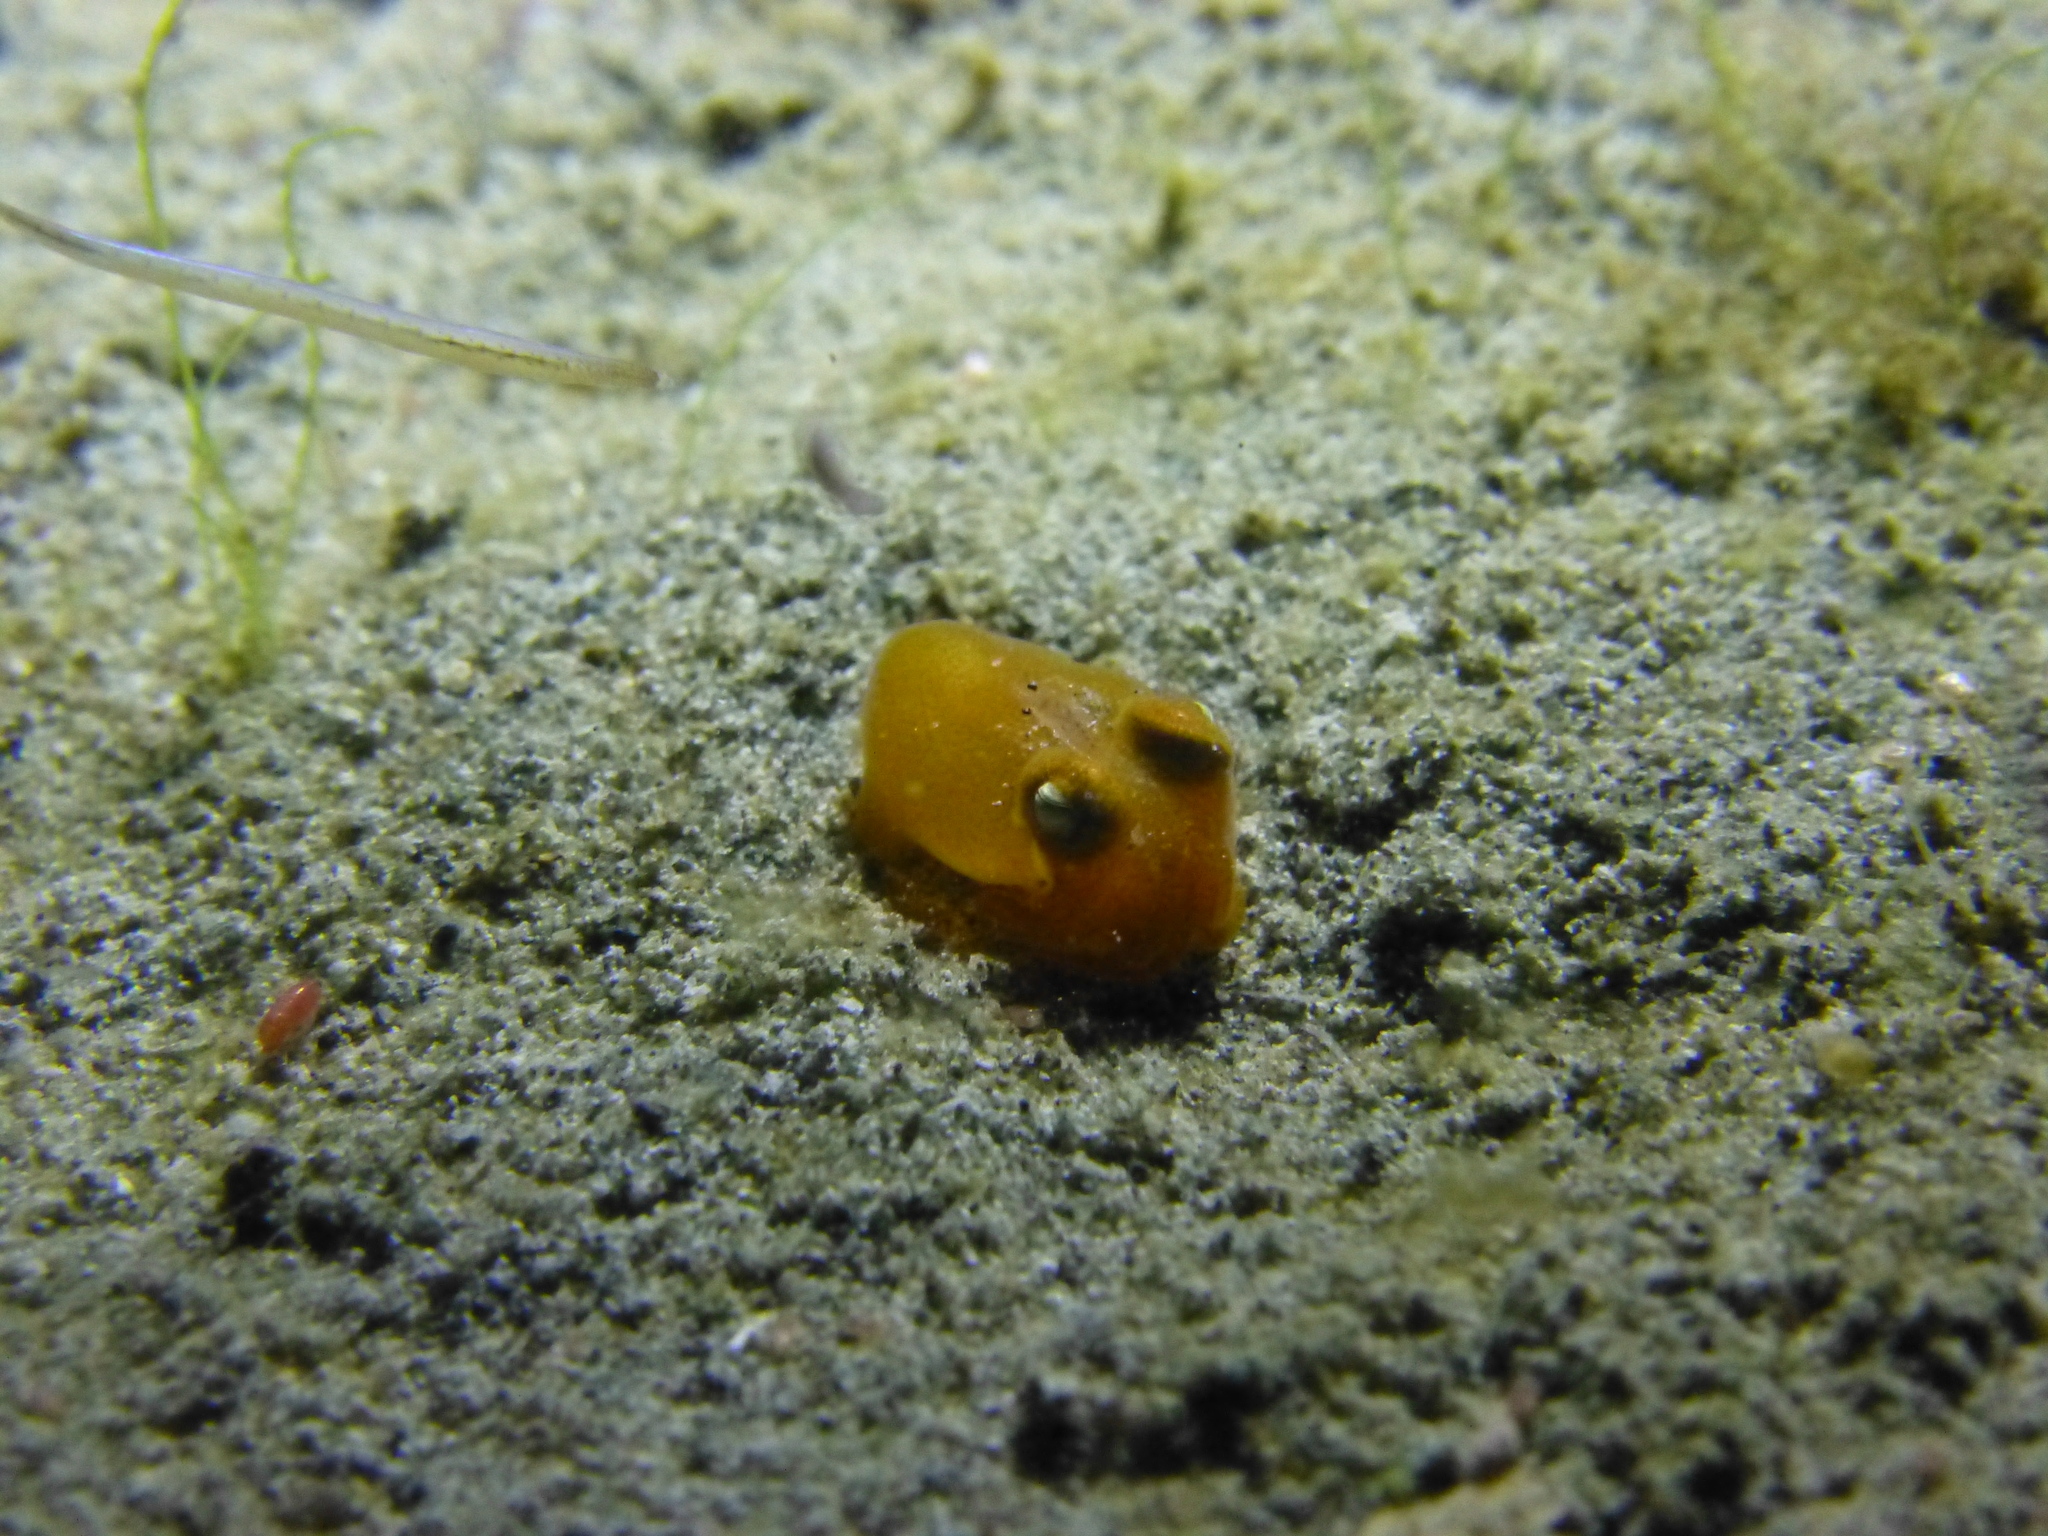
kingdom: Animalia
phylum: Mollusca
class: Cephalopoda
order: Sepiida
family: Sepiadariidae
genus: Sepiadarium
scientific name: Sepiadarium kochii
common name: Koch’s bottletail squid
